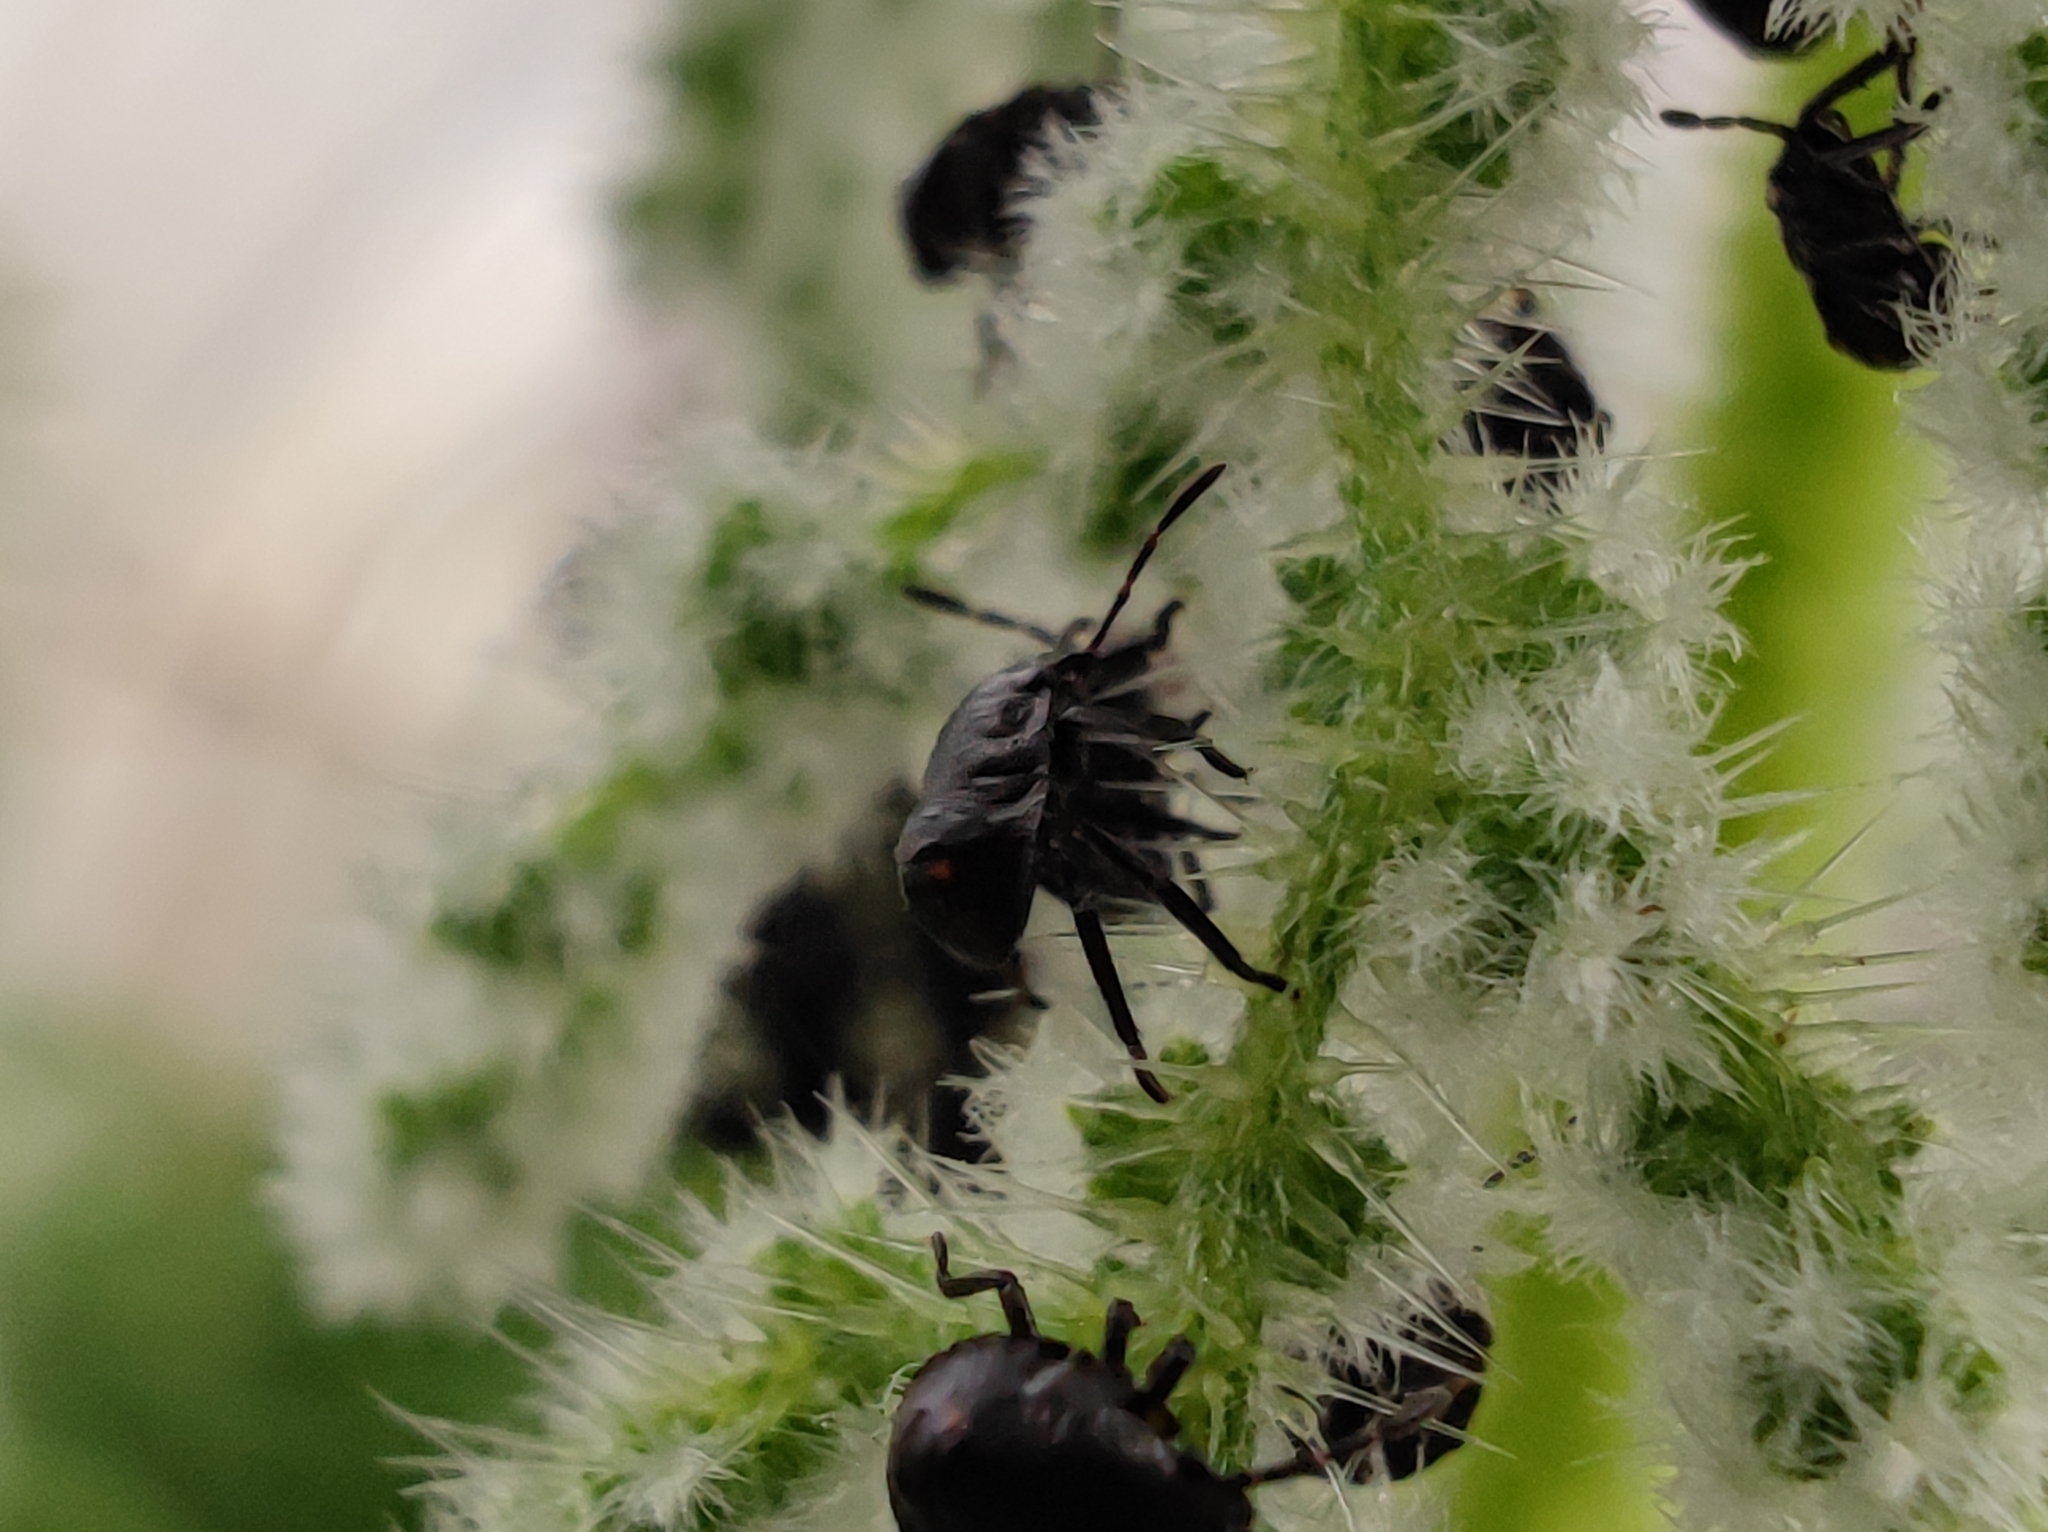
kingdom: Animalia
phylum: Arthropoda
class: Insecta
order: Hemiptera
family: Pentatomidae
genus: Nezara
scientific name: Nezara viridula
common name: Southern green stink bug
